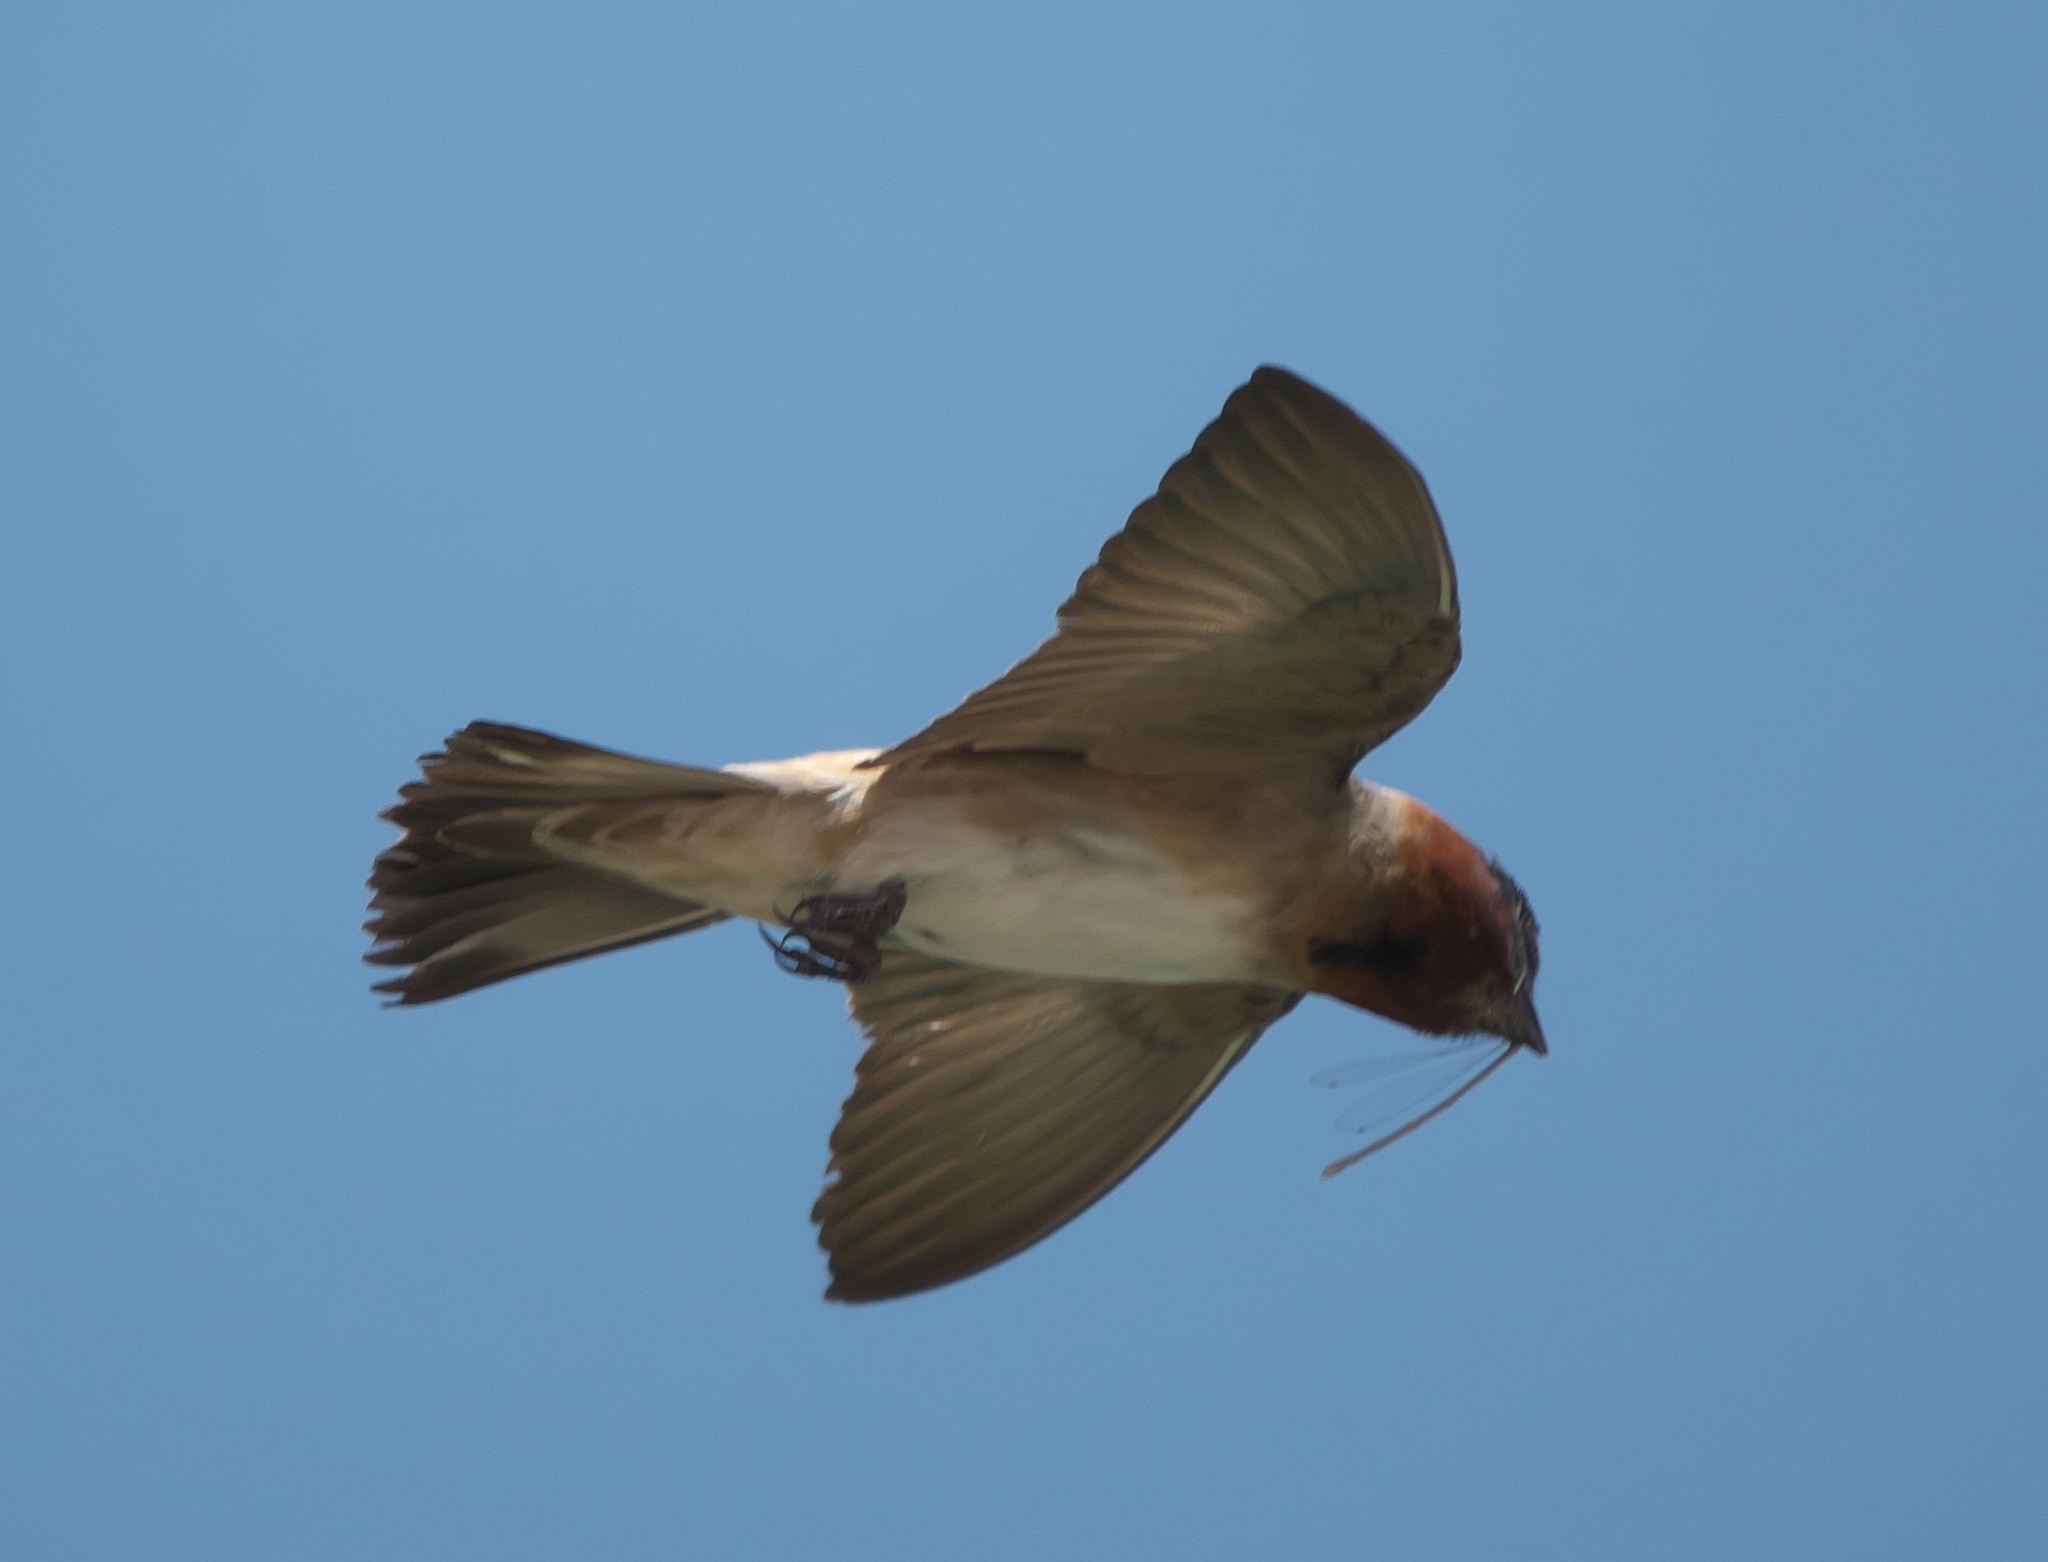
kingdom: Animalia
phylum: Chordata
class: Aves
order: Passeriformes
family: Hirundinidae
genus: Petrochelidon
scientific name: Petrochelidon pyrrhonota
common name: American cliff swallow
